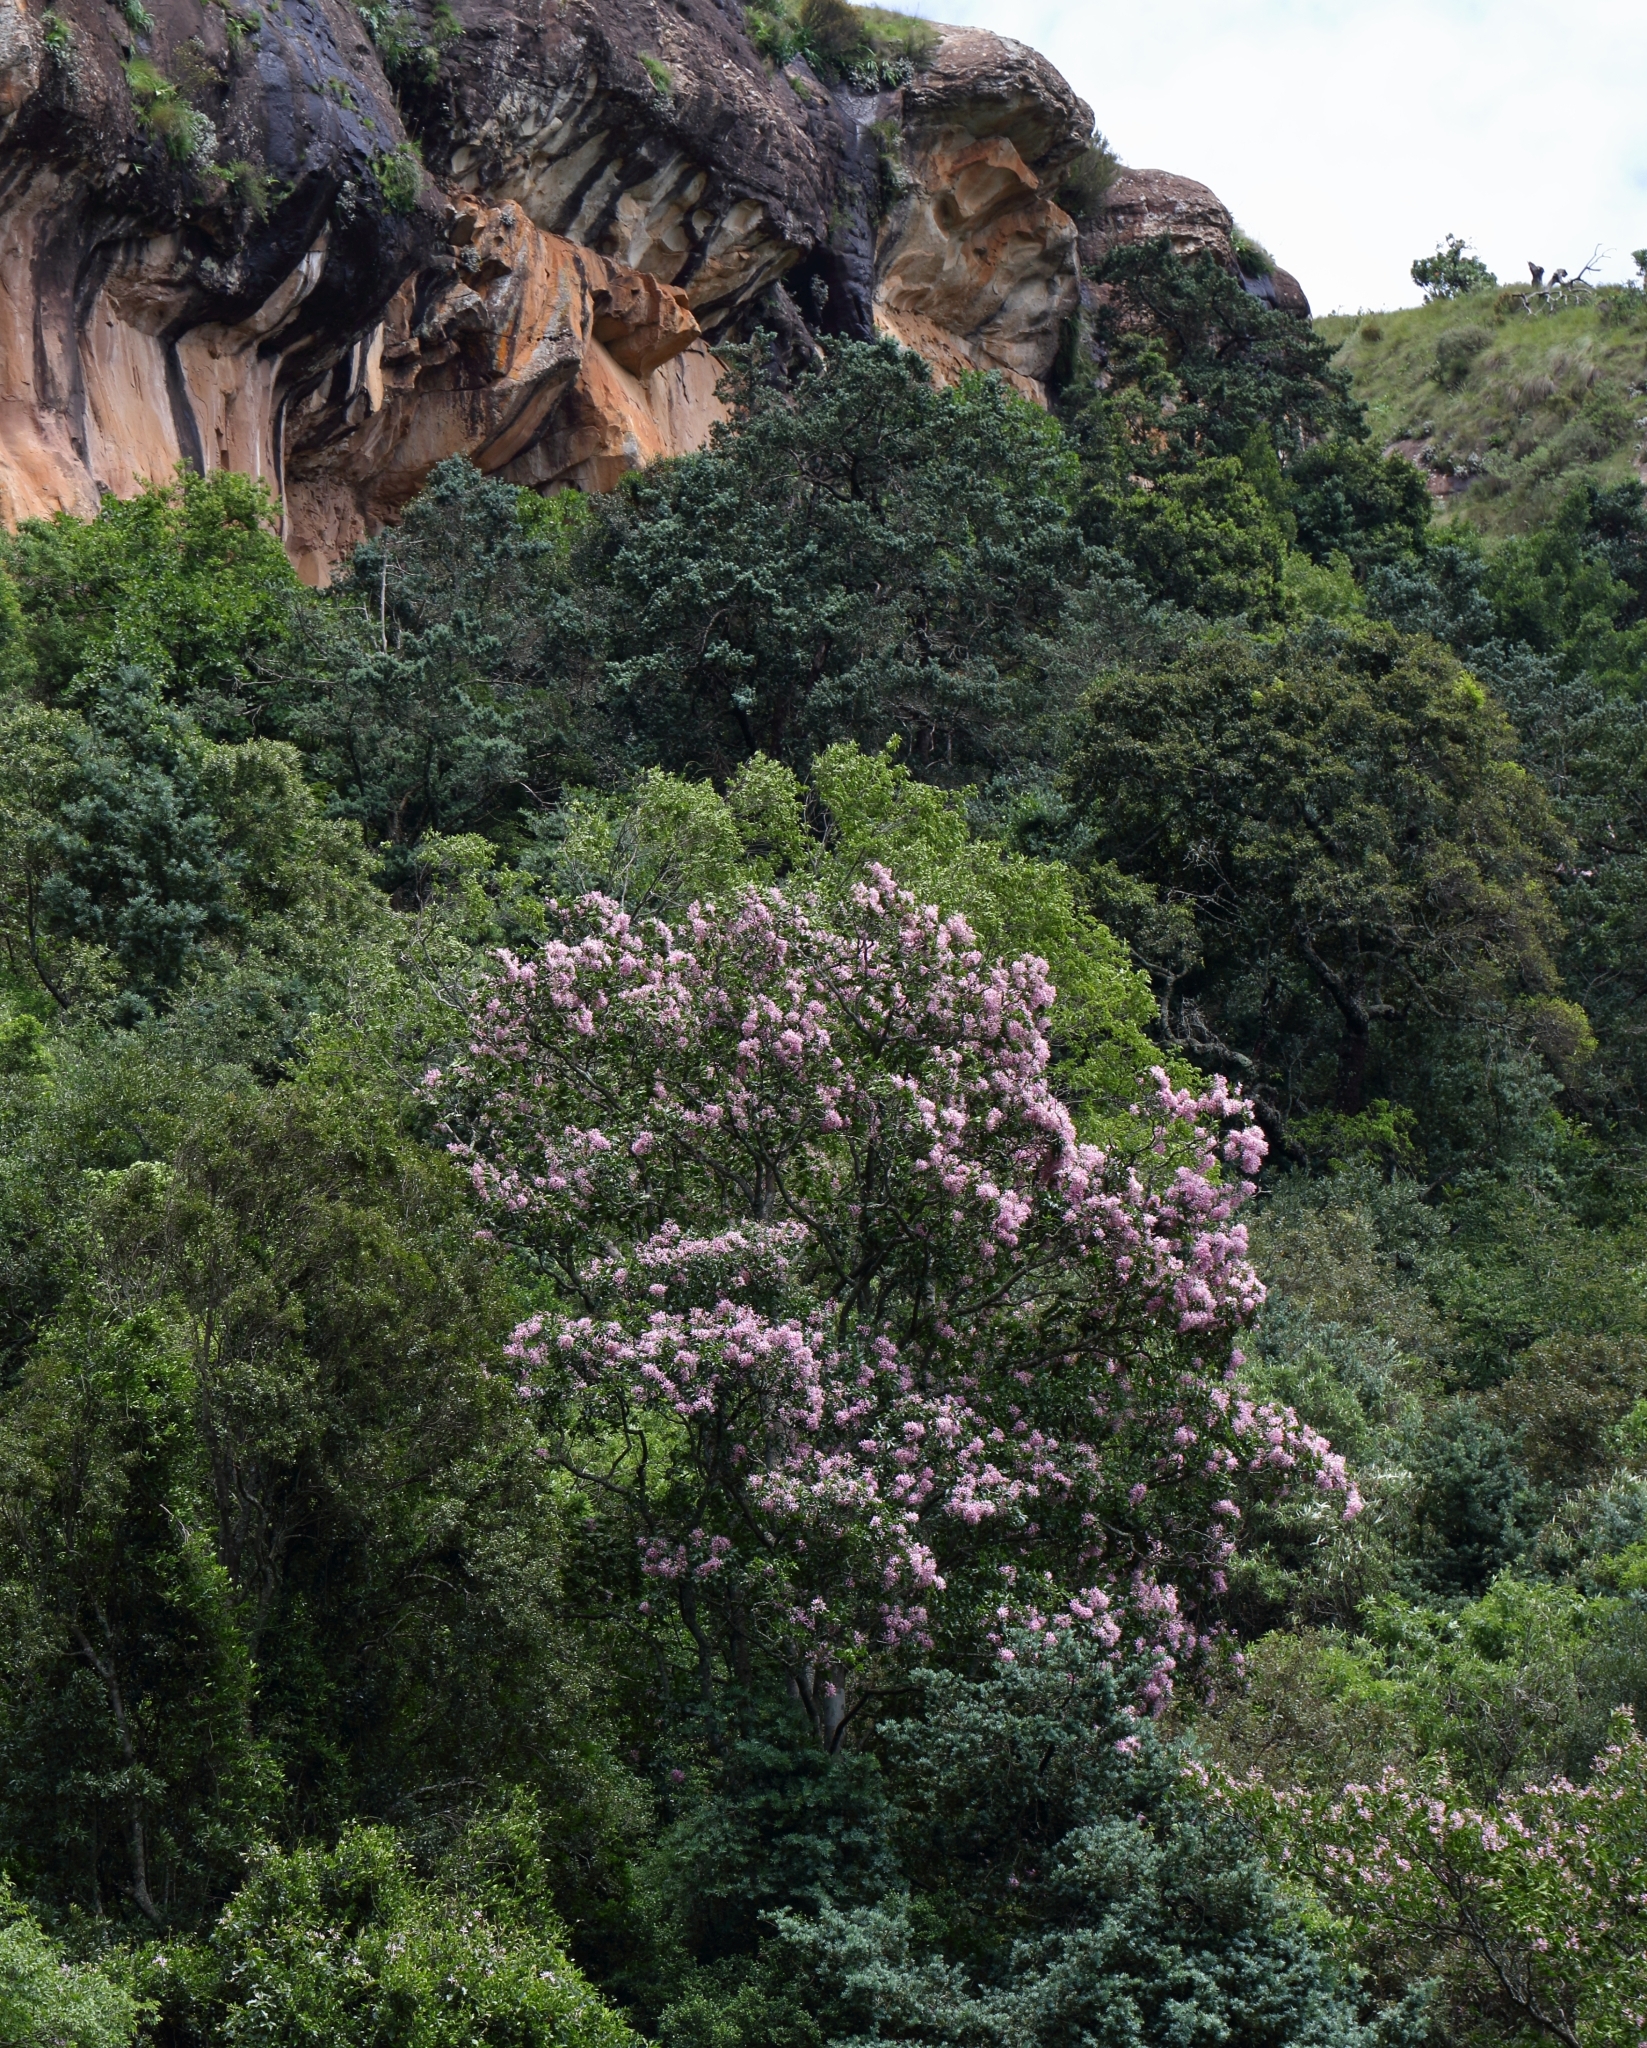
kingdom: Plantae
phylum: Tracheophyta
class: Magnoliopsida
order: Sapindales
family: Rutaceae
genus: Calodendrum
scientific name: Calodendrum capense
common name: Cape chestnut
